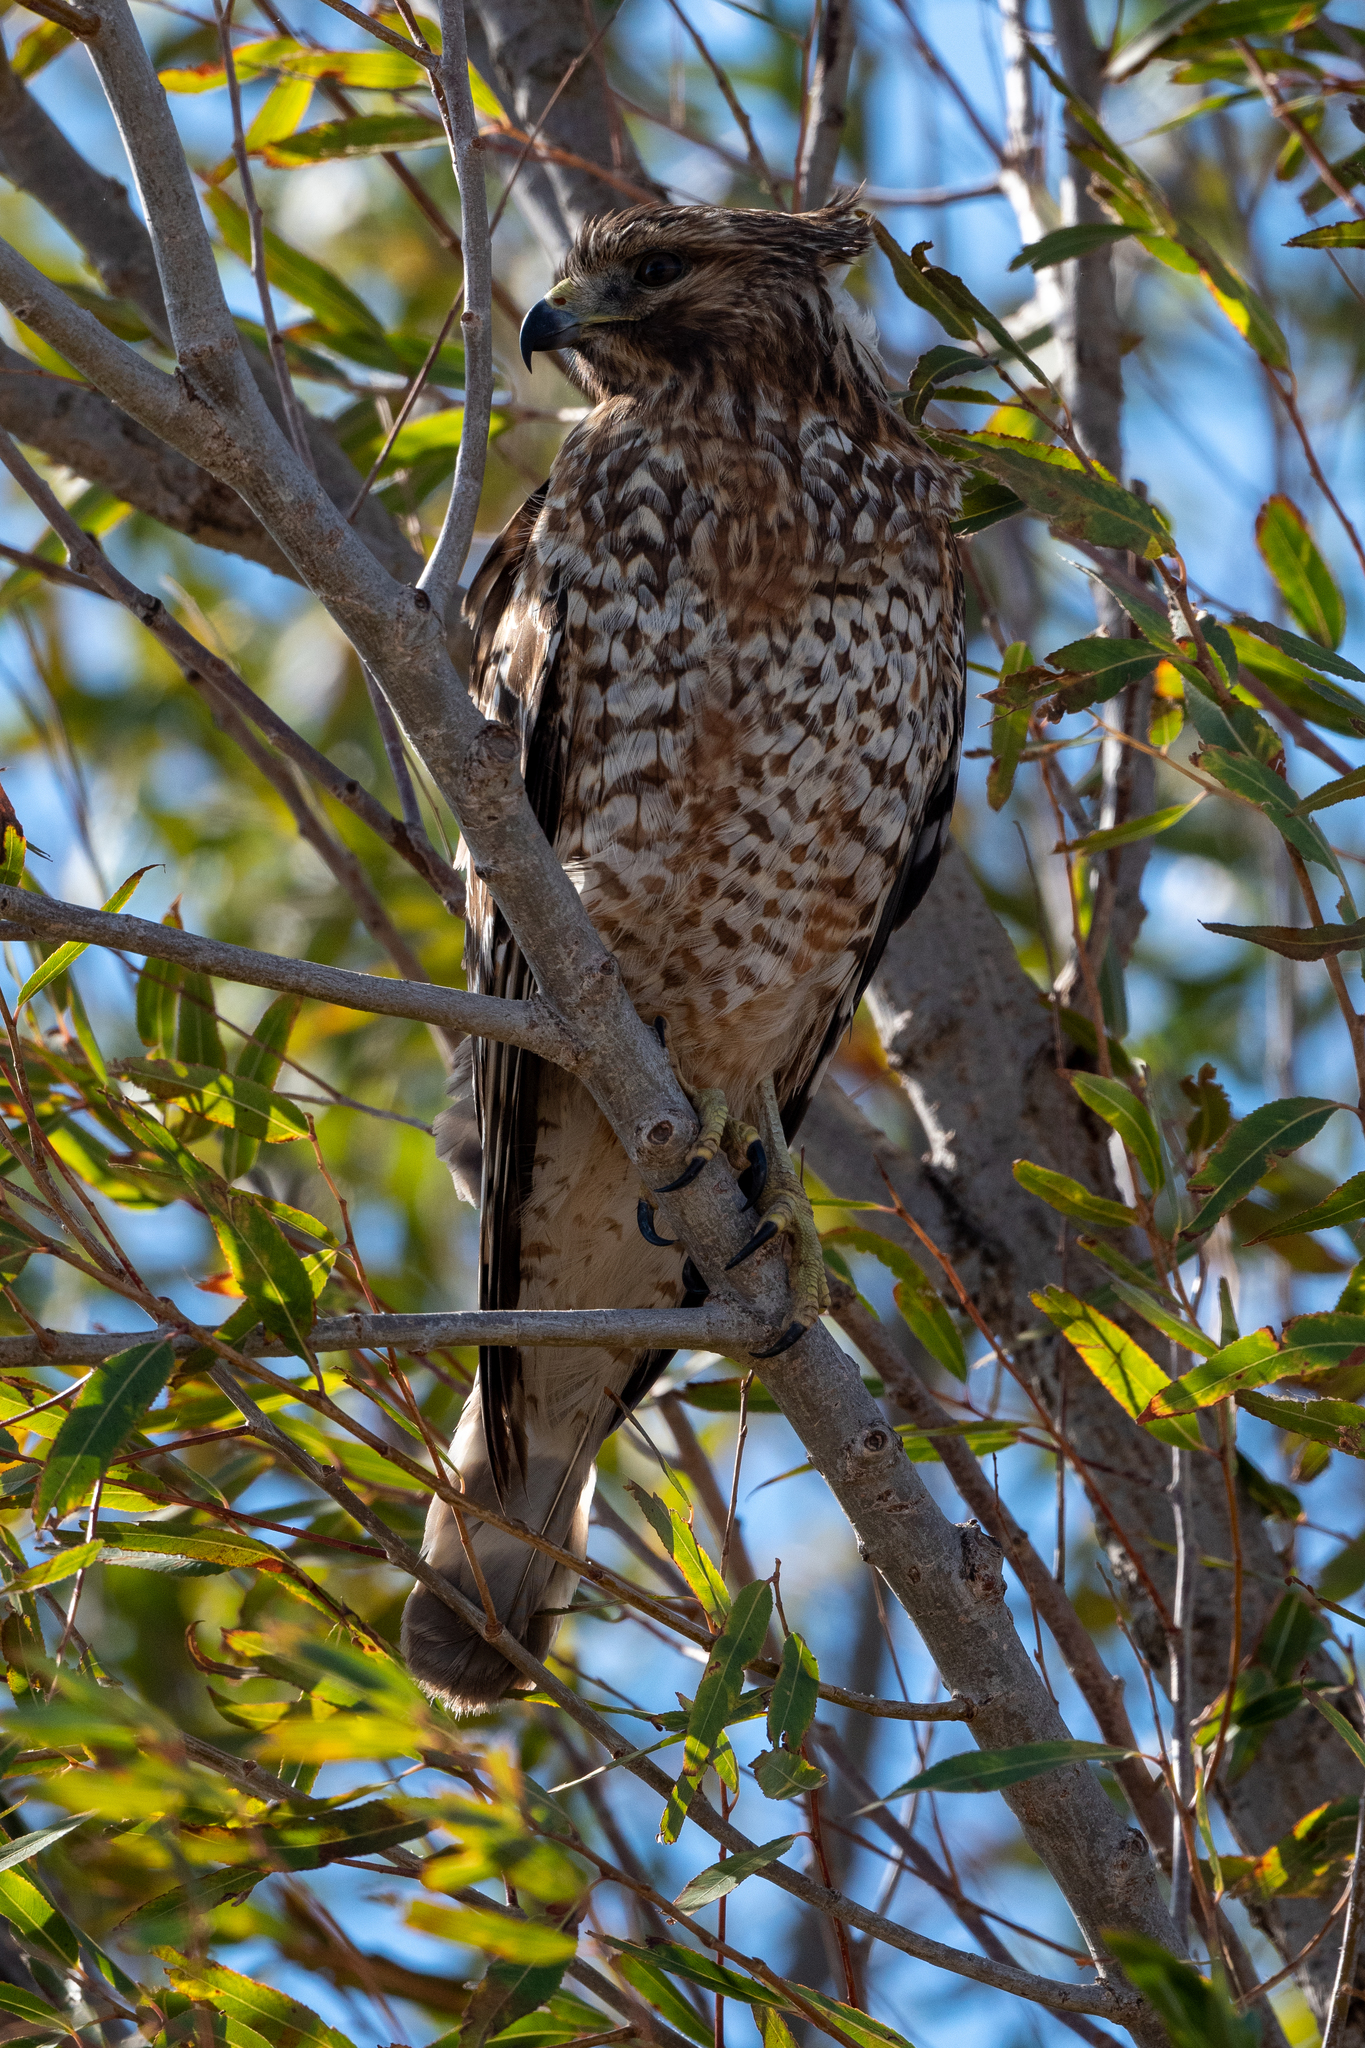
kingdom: Animalia
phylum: Chordata
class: Aves
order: Accipitriformes
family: Accipitridae
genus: Buteo
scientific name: Buteo lineatus
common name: Red-shouldered hawk
